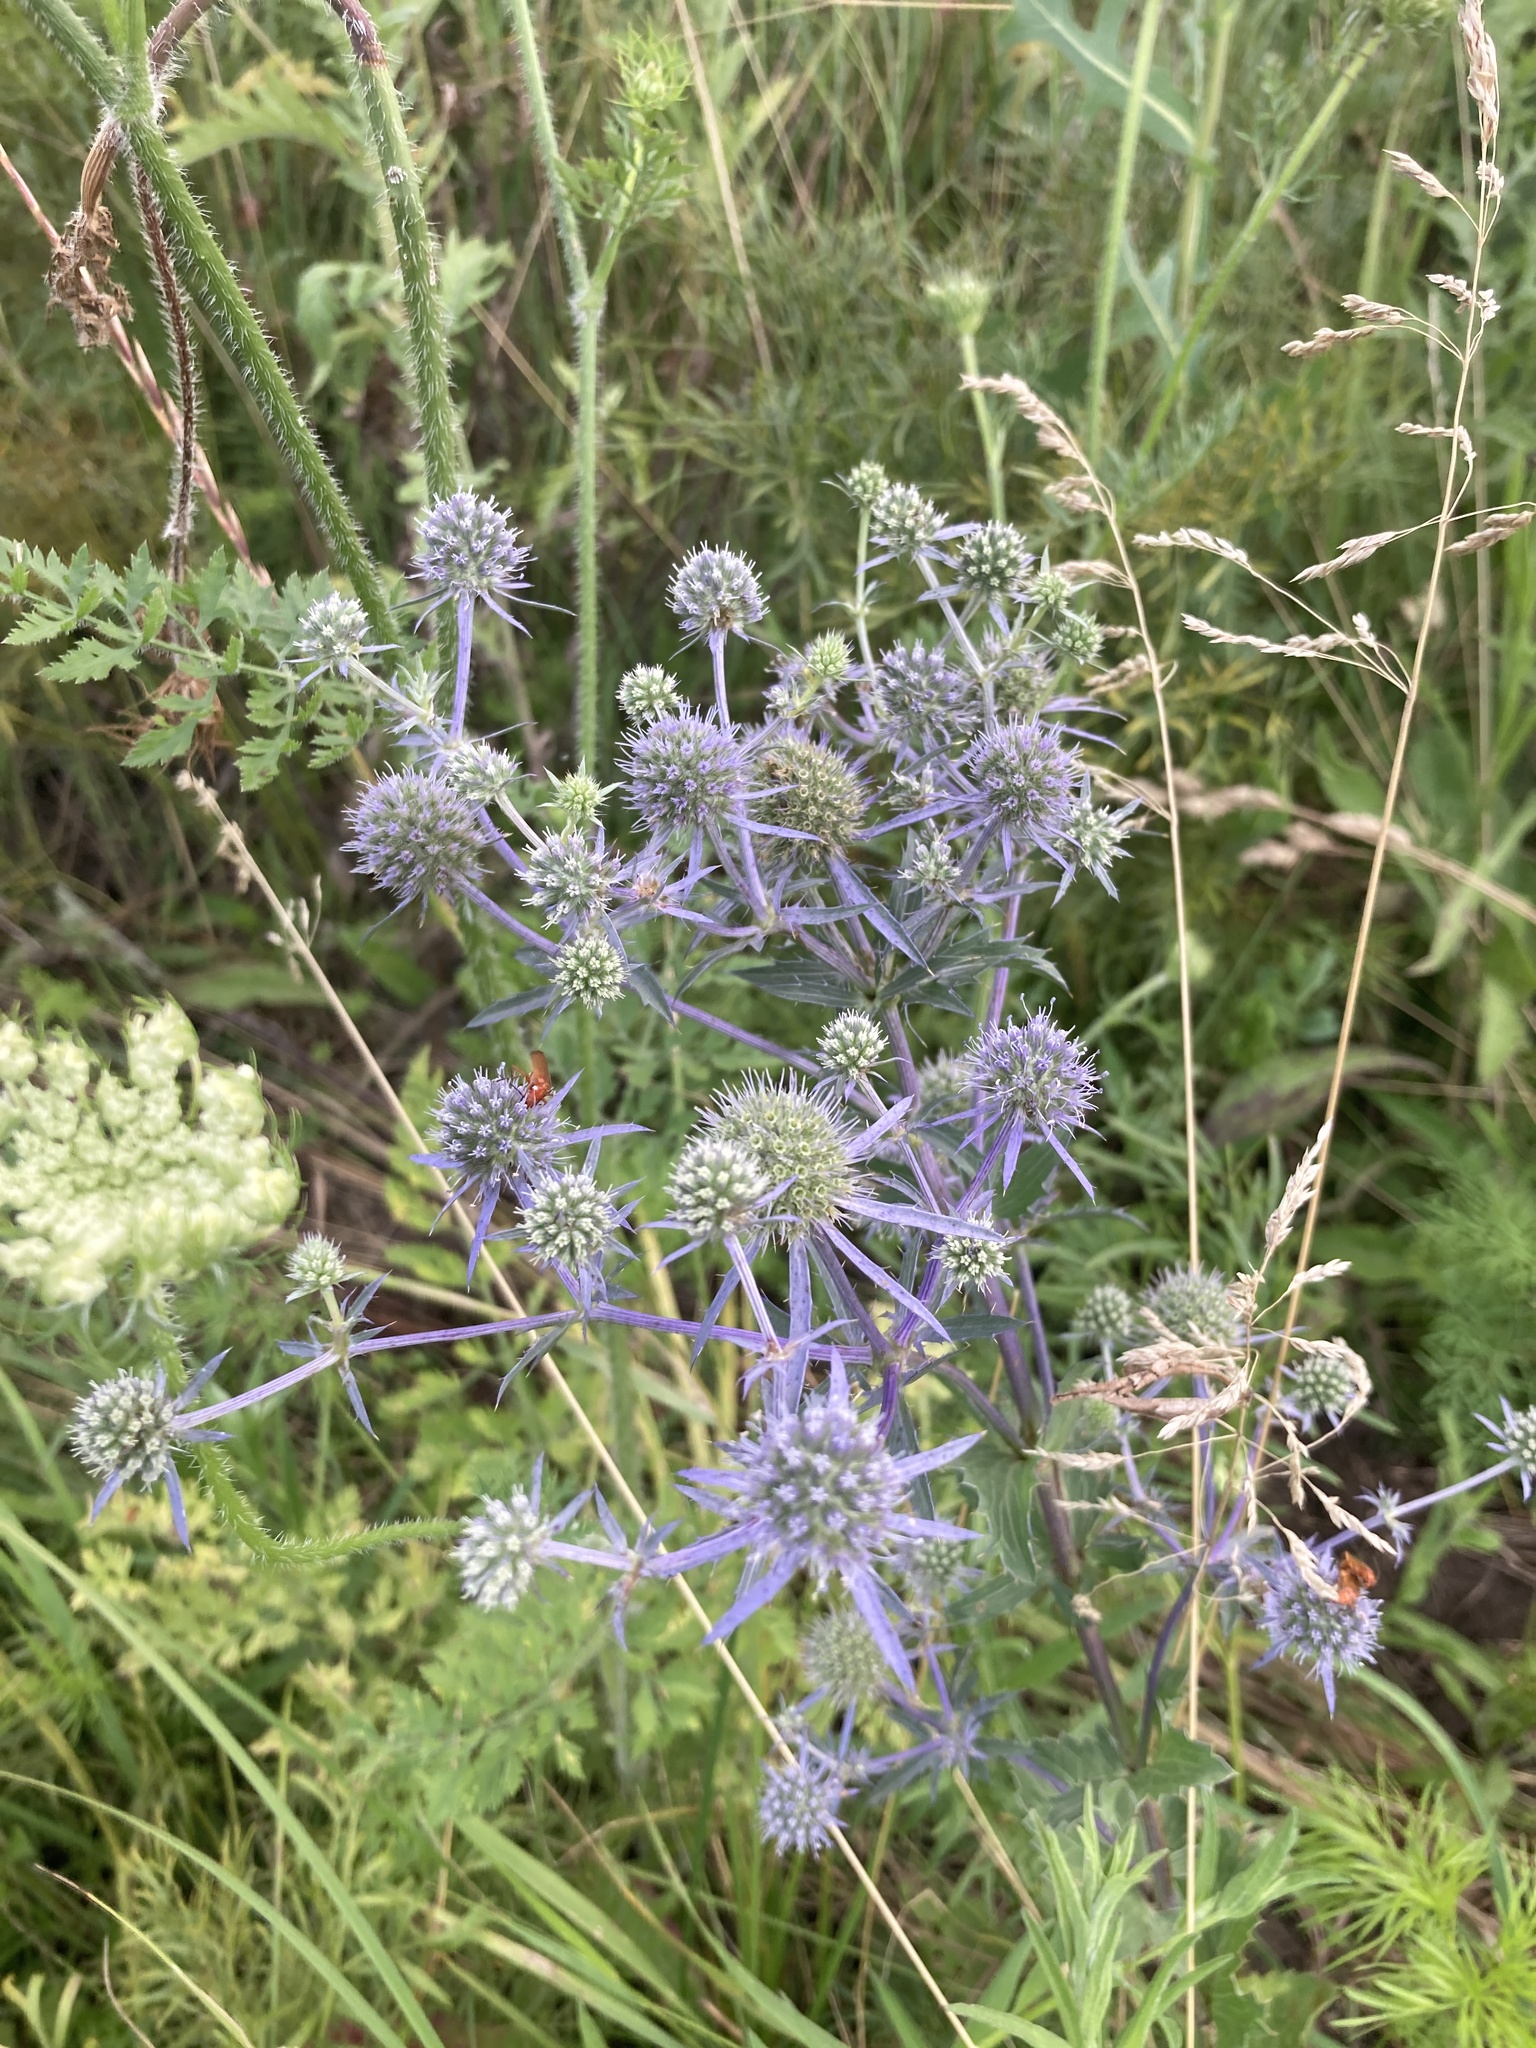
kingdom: Plantae
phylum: Tracheophyta
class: Magnoliopsida
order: Apiales
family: Apiaceae
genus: Eryngium
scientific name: Eryngium planum
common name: Blue eryngo
